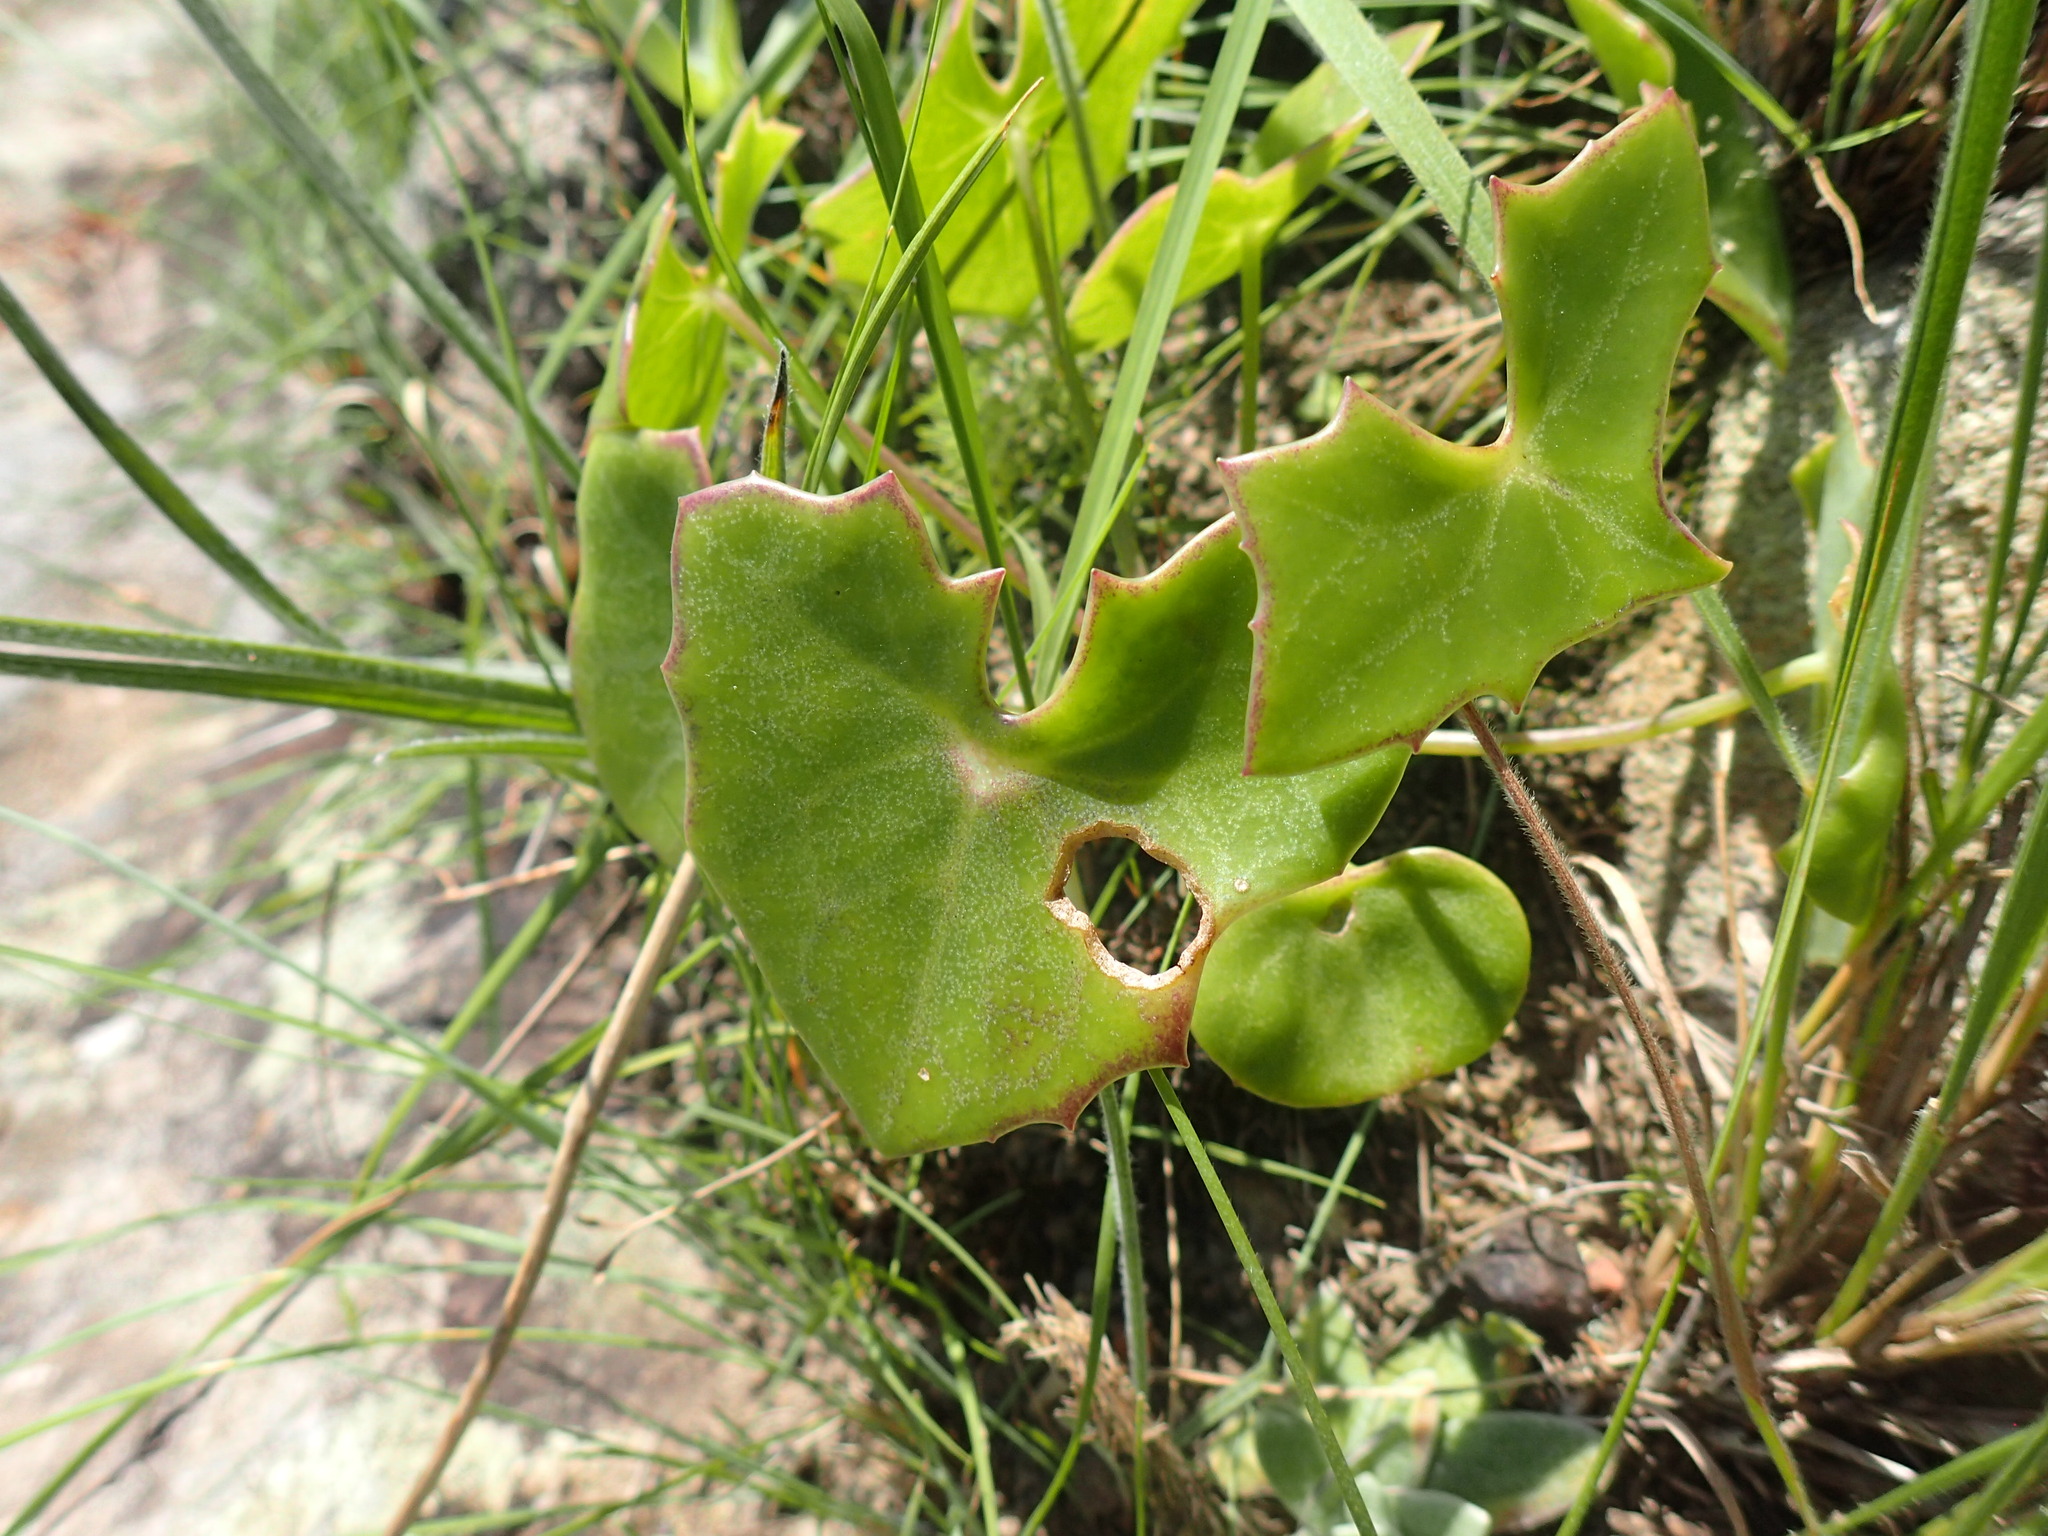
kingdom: Plantae
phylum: Tracheophyta
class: Magnoliopsida
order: Asterales
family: Asteraceae
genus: Senecio
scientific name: Senecio oxyriifolius
